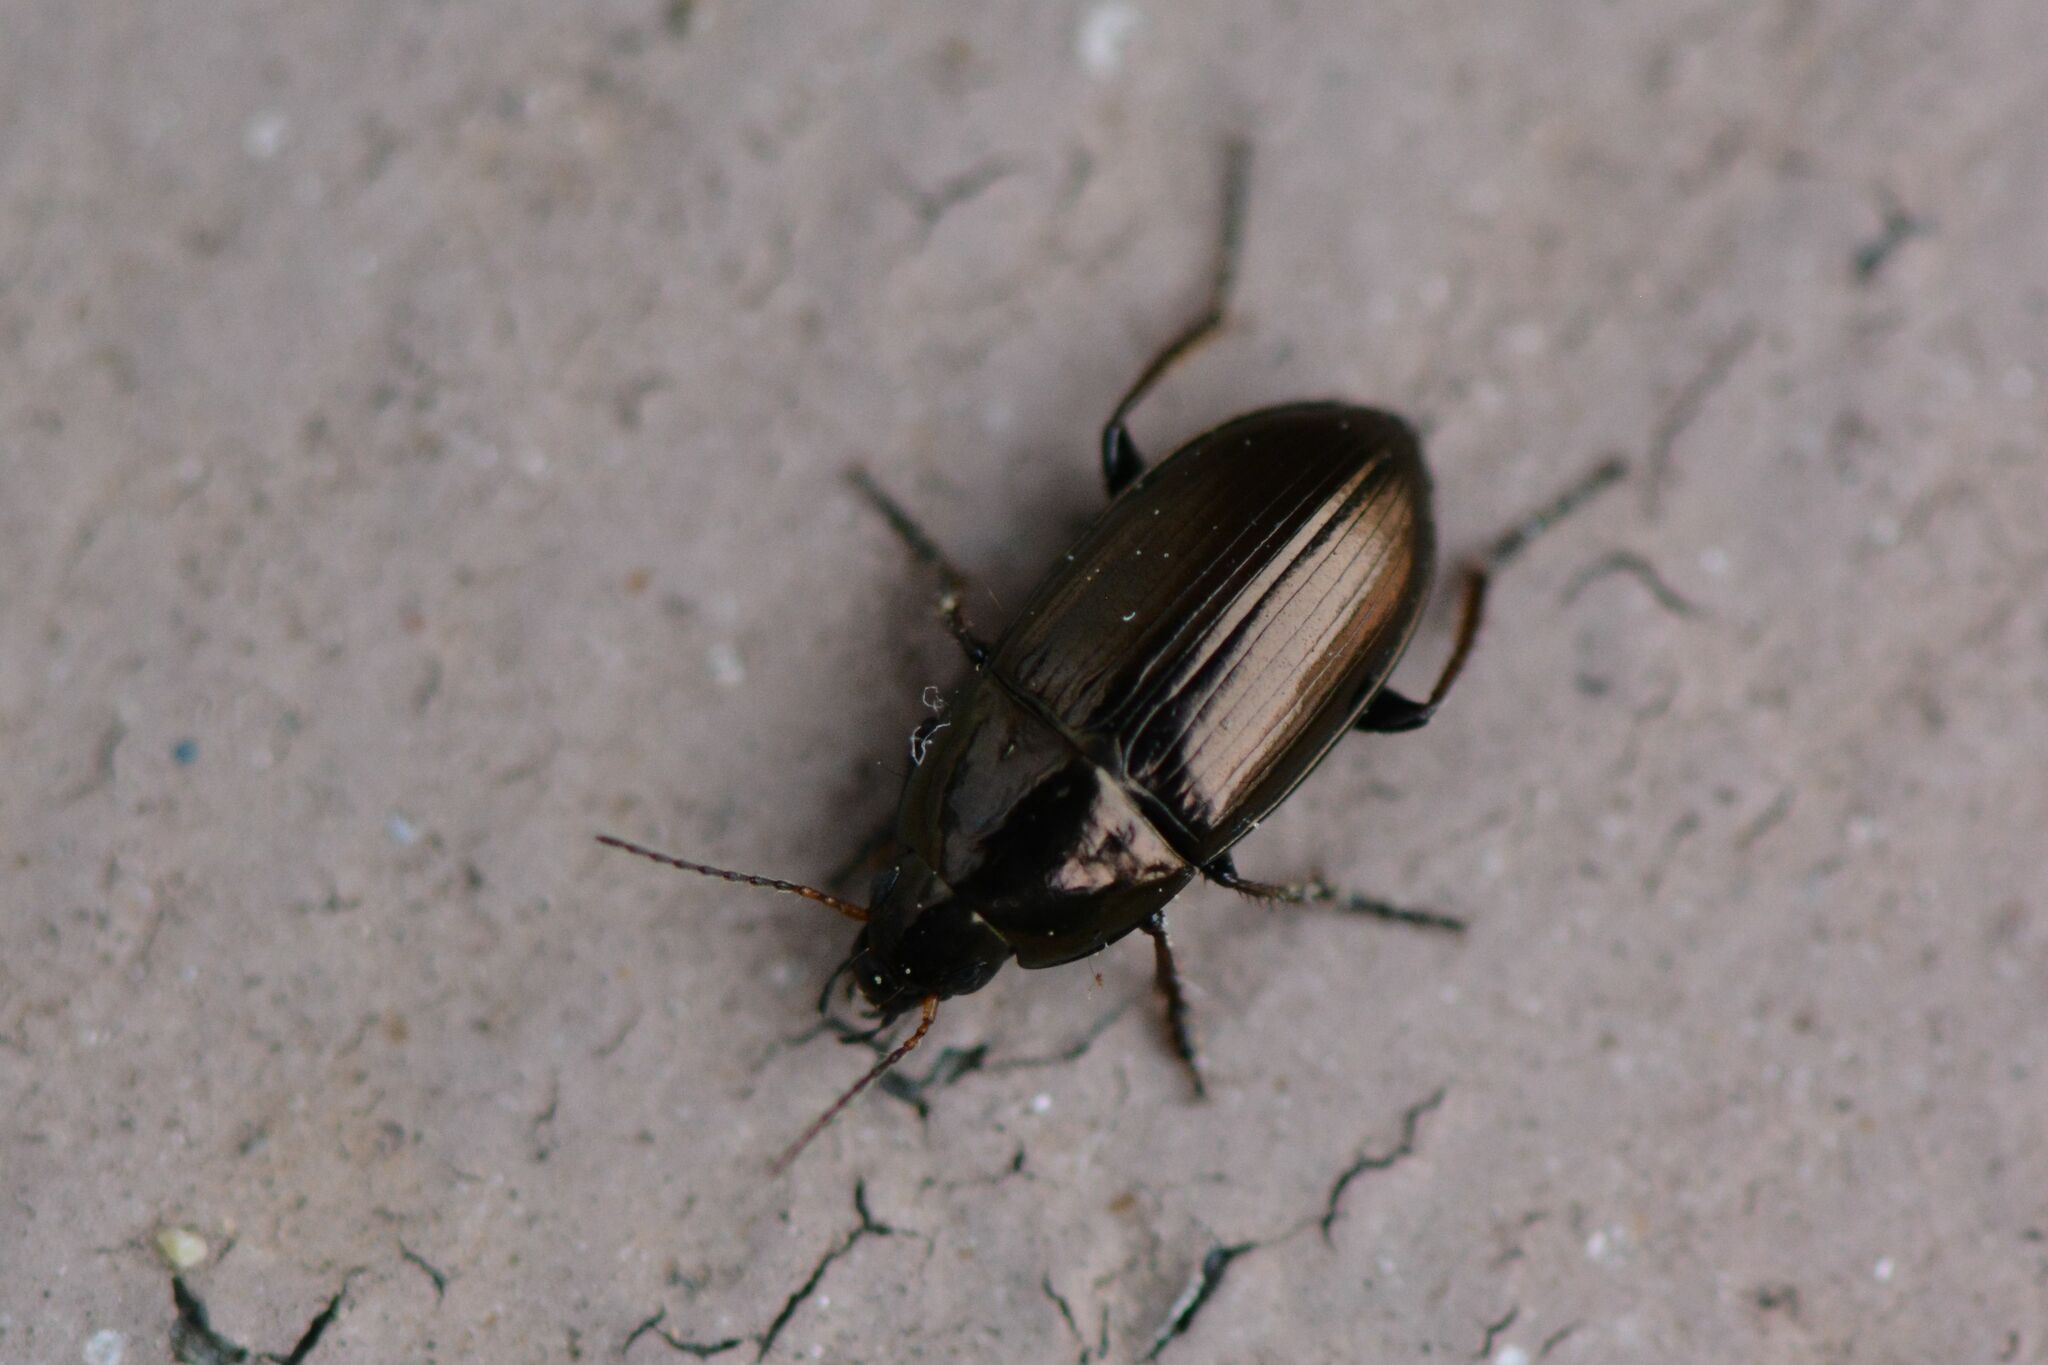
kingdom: Animalia
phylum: Arthropoda
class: Insecta
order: Coleoptera
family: Carabidae
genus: Amara
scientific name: Amara aenea
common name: Common sun beetle
